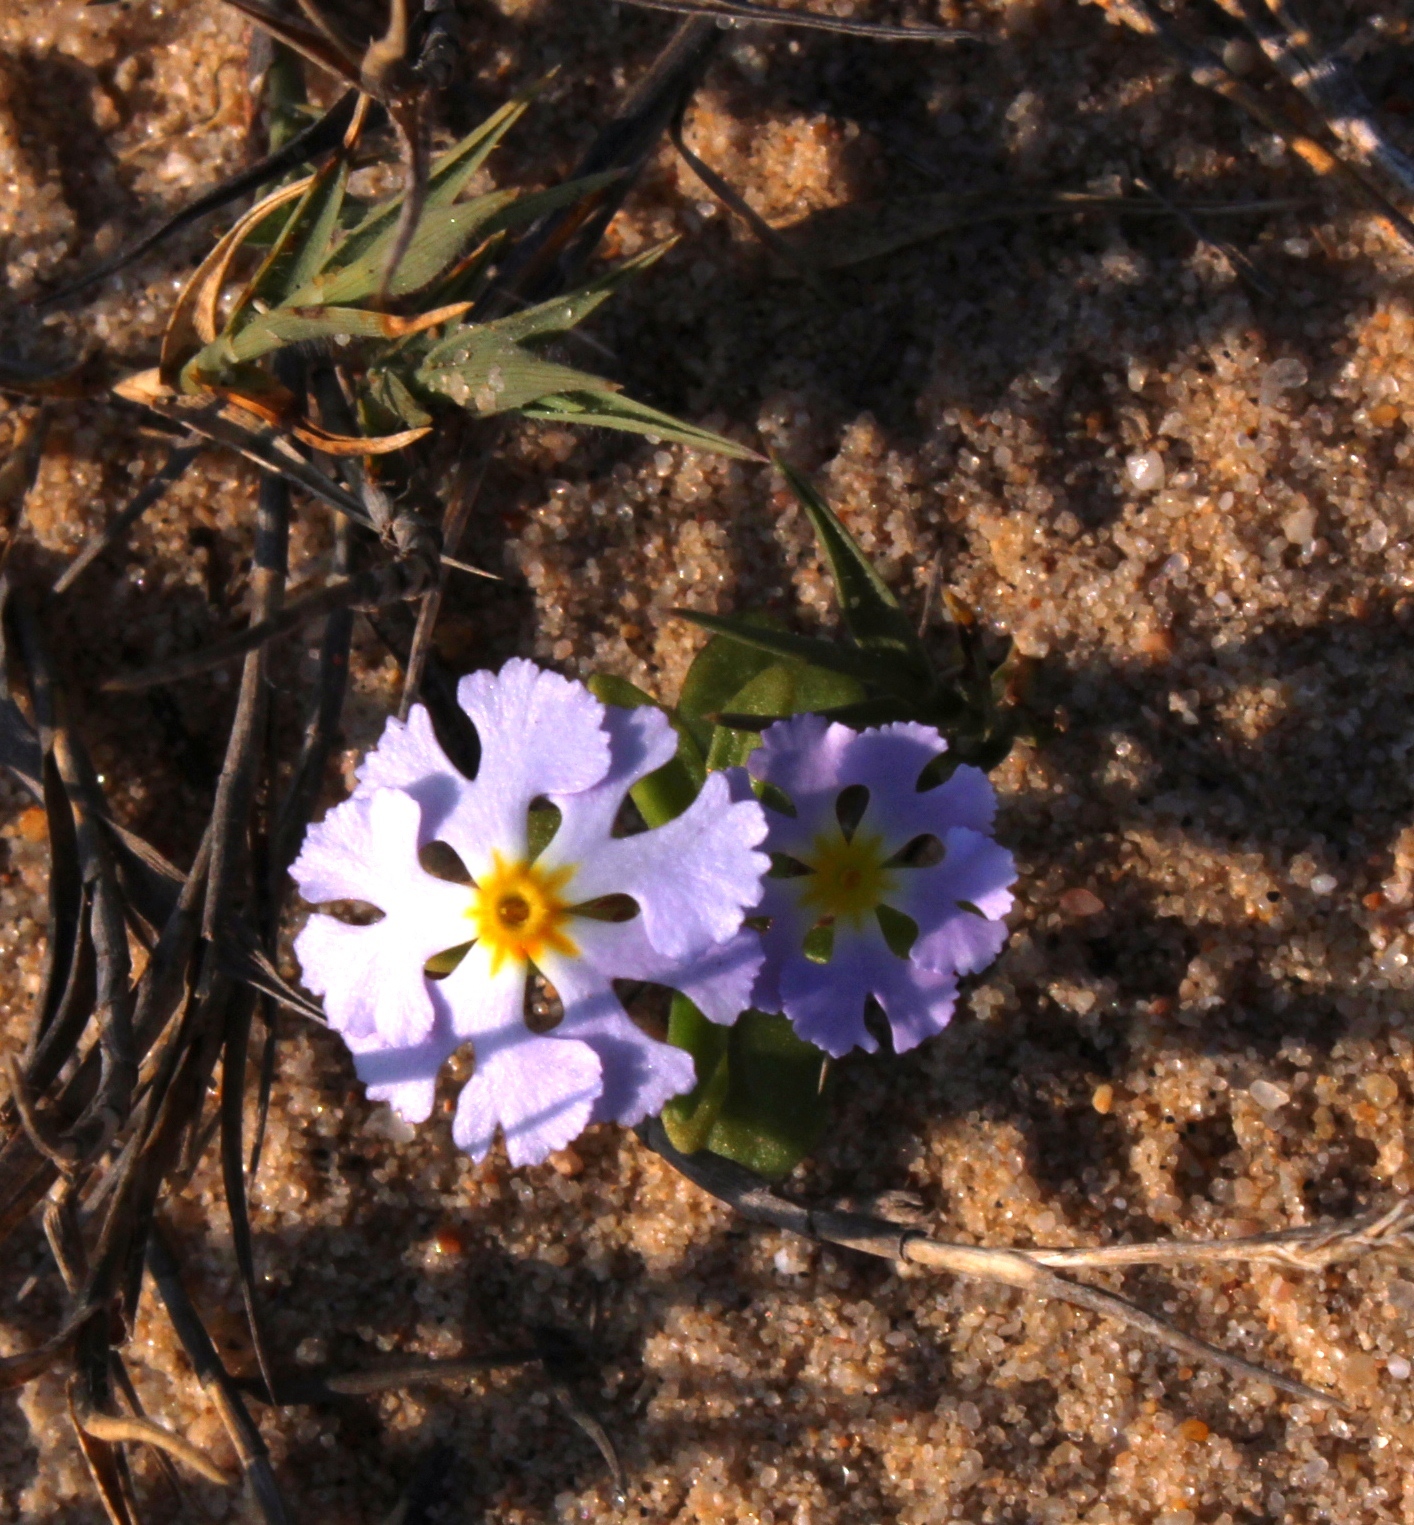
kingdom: Plantae
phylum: Tracheophyta
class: Magnoliopsida
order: Lamiales
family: Scrophulariaceae
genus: Zaluzianskya
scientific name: Zaluzianskya affinis
